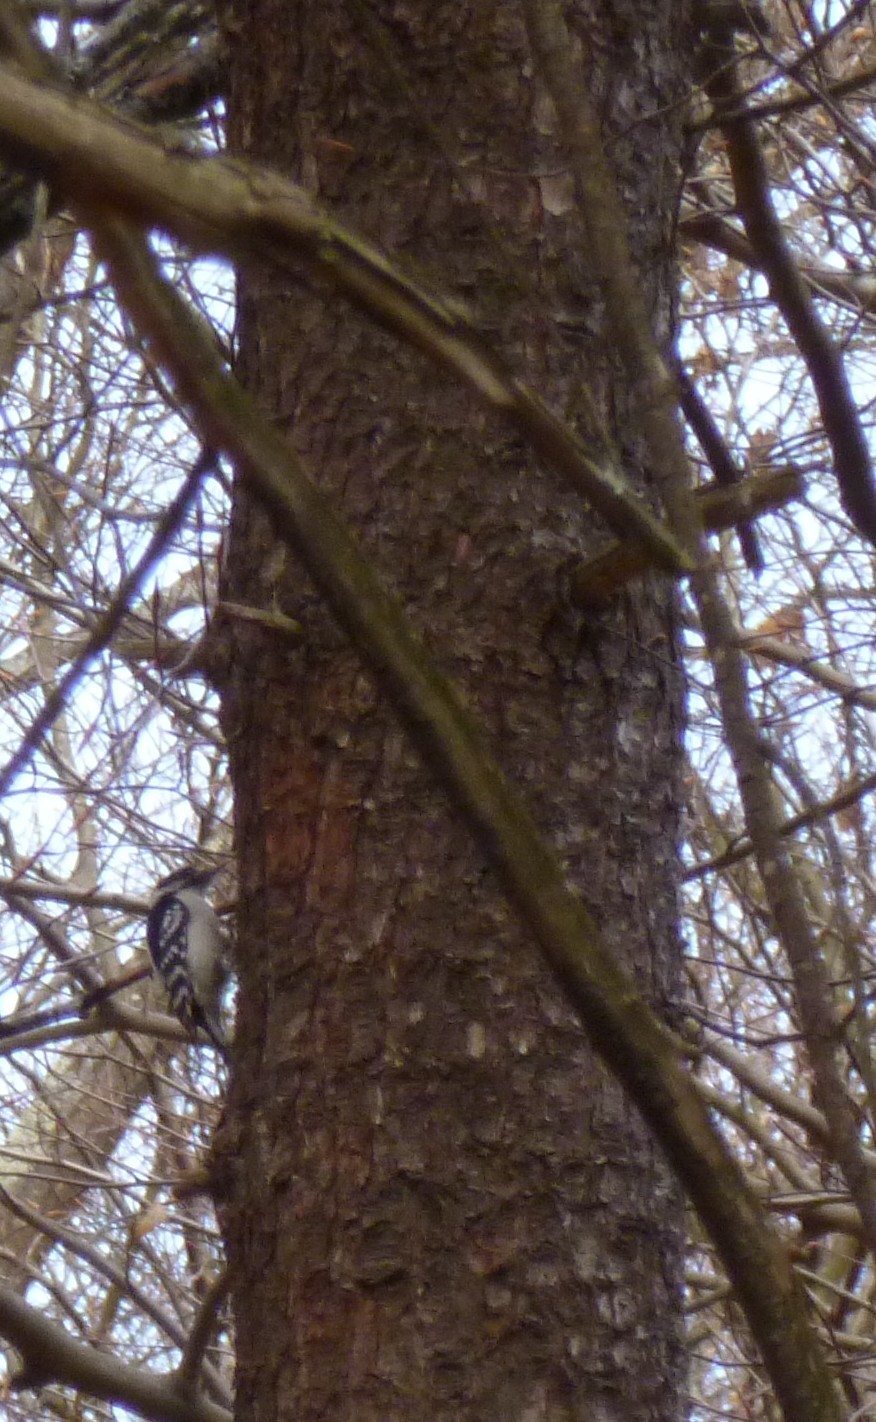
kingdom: Animalia
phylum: Chordata
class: Aves
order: Piciformes
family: Picidae
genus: Dryobates
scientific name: Dryobates pubescens
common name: Downy woodpecker
